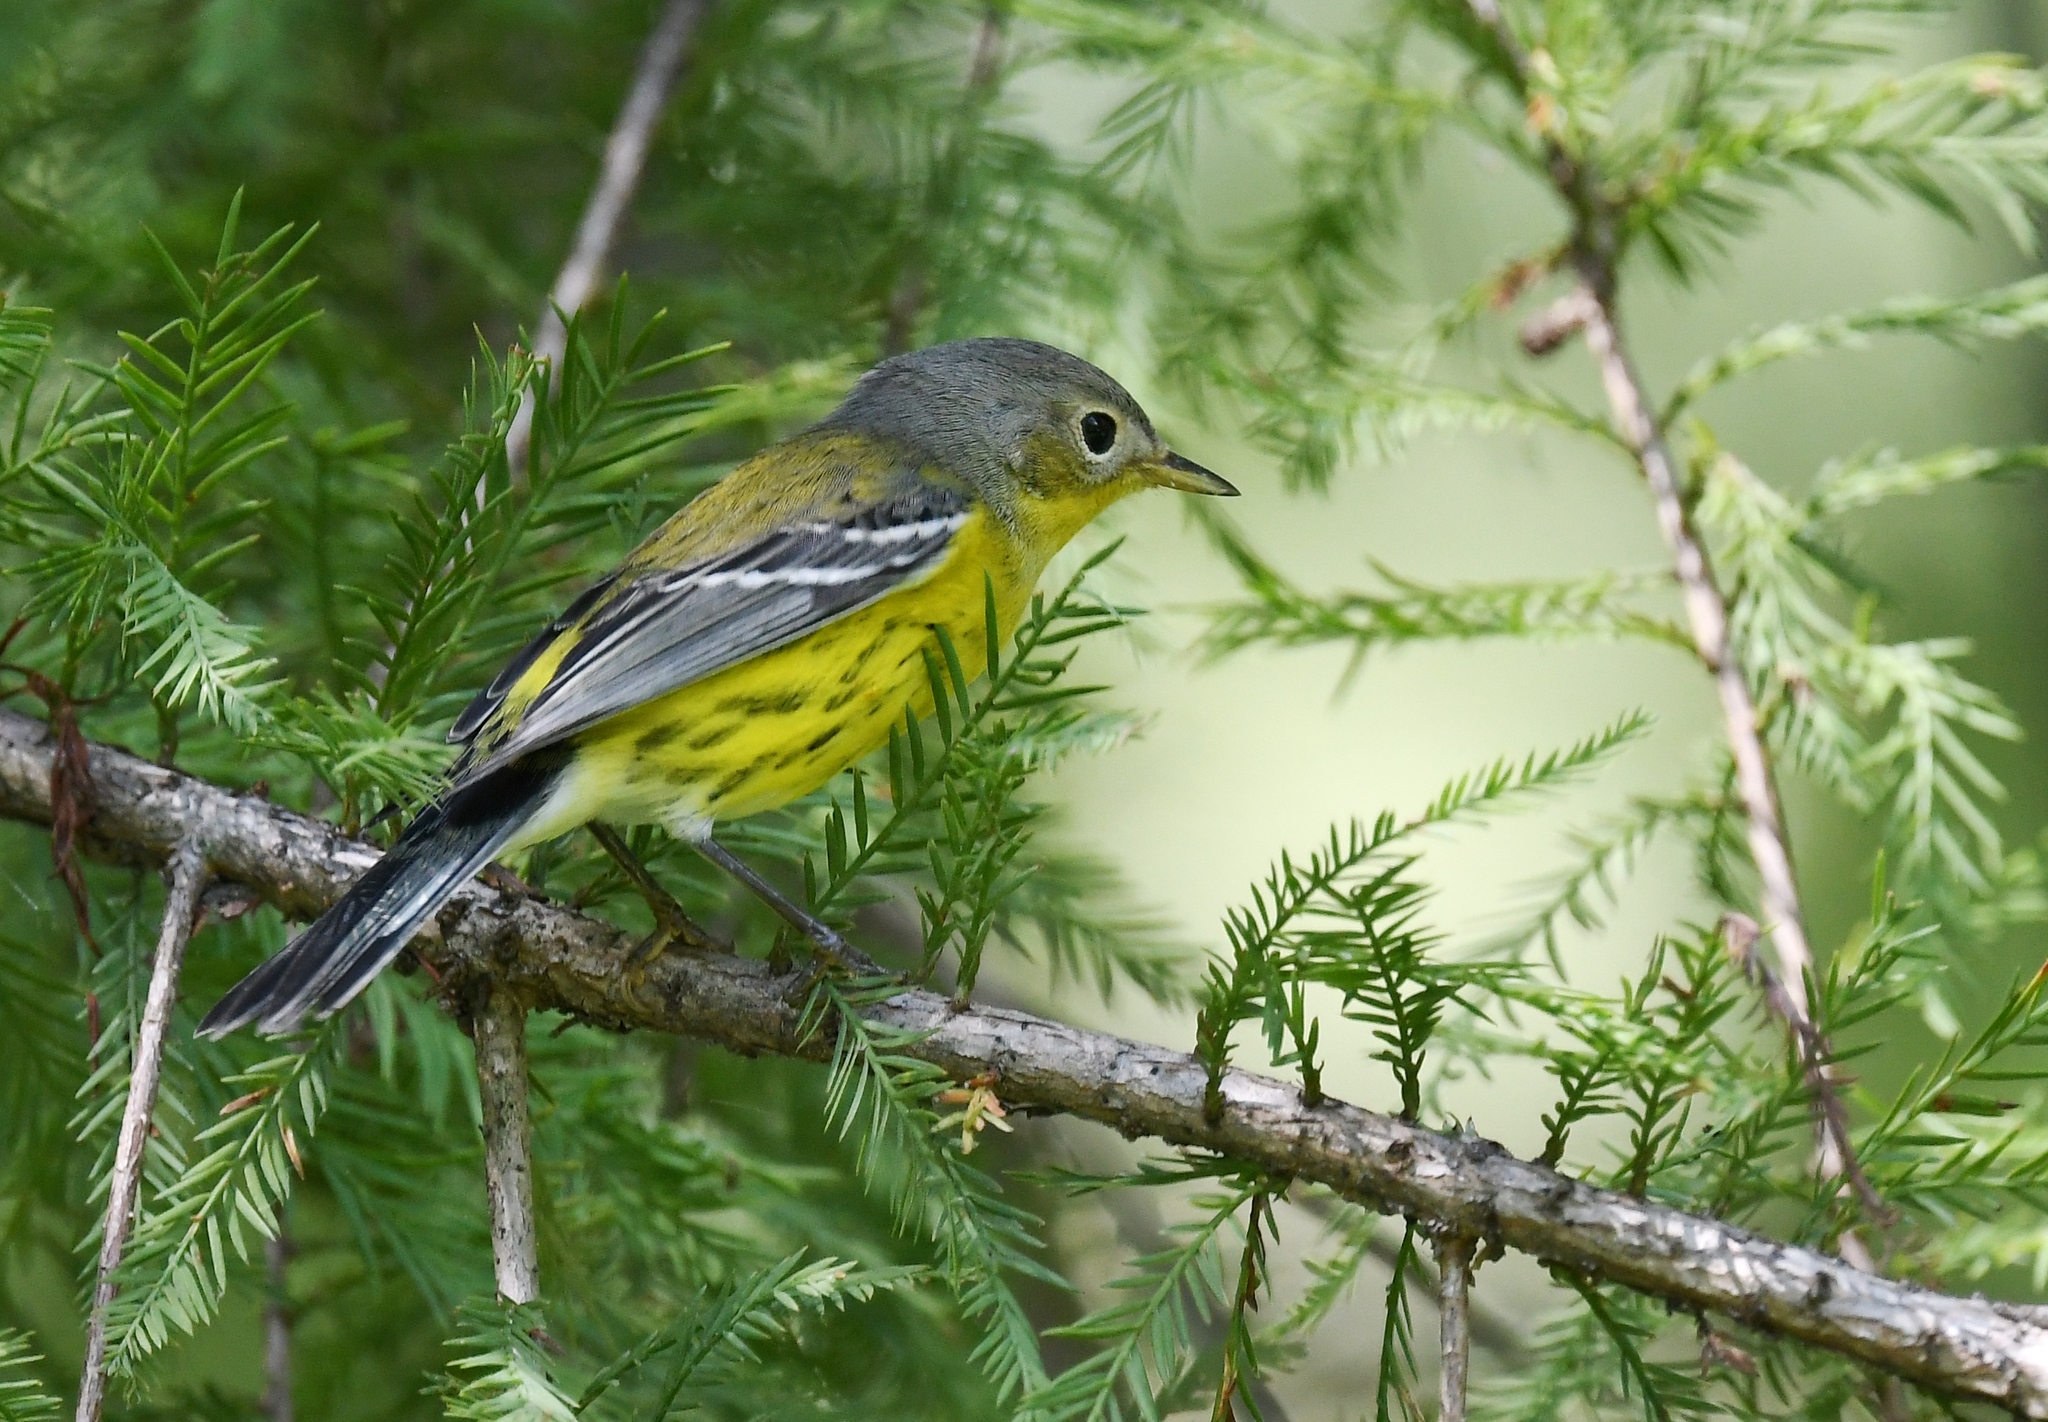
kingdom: Animalia
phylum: Chordata
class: Aves
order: Passeriformes
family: Parulidae
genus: Setophaga
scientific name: Setophaga magnolia
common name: Magnolia warbler
